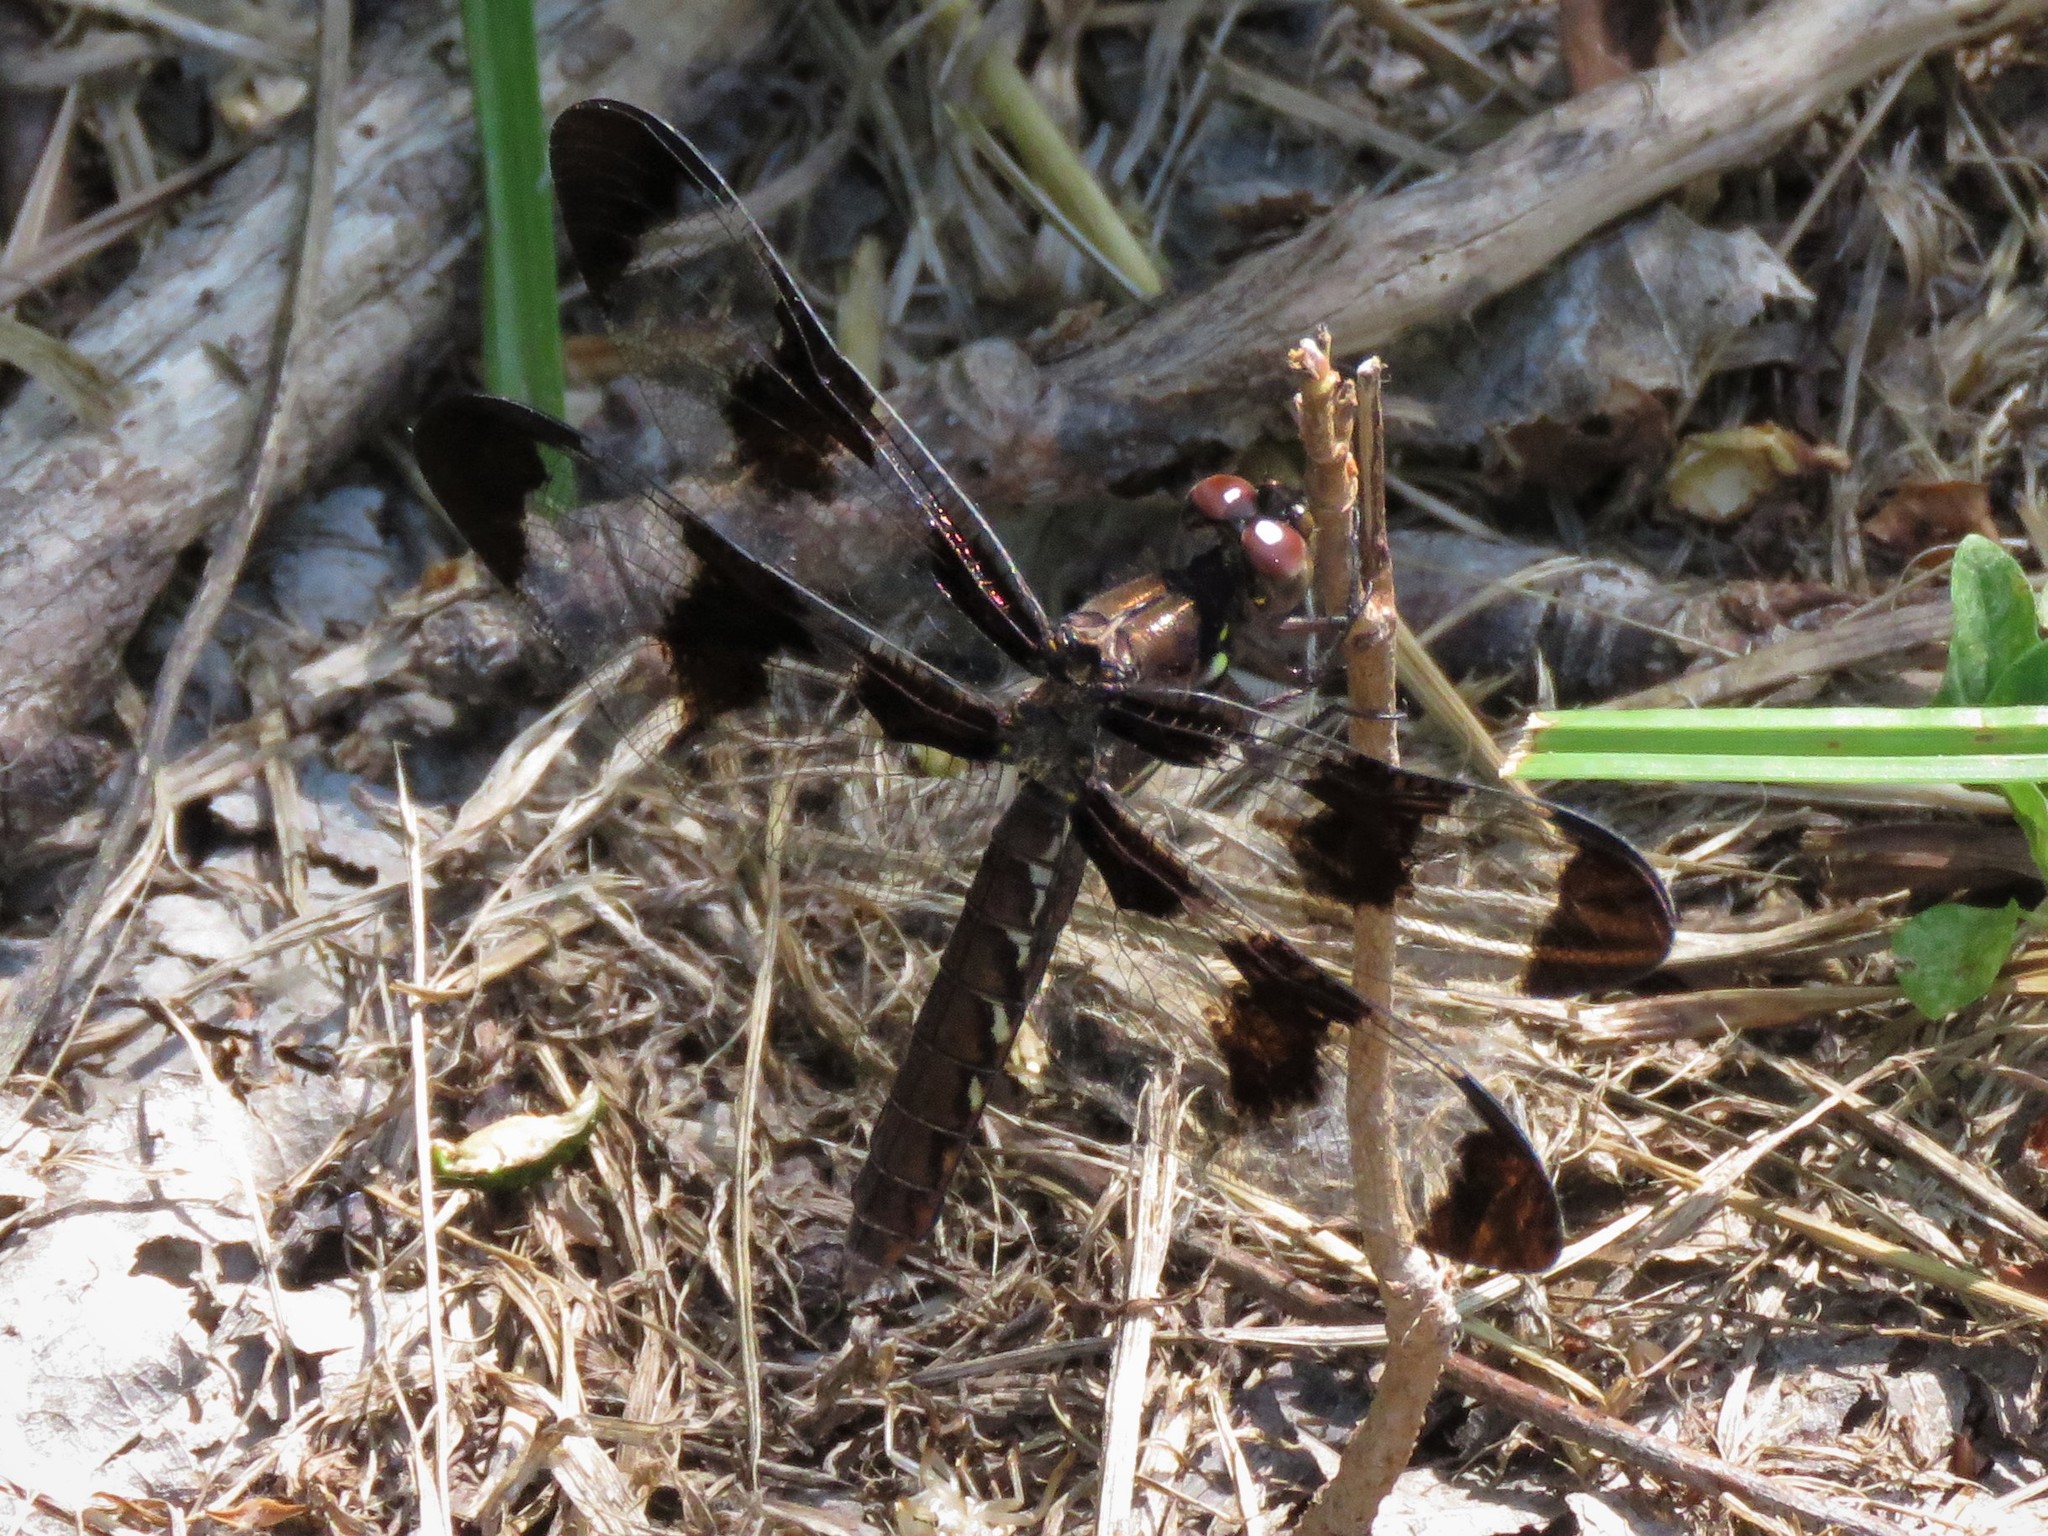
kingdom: Animalia
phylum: Arthropoda
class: Insecta
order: Odonata
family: Libellulidae
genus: Plathemis
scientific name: Plathemis lydia
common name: Common whitetail
